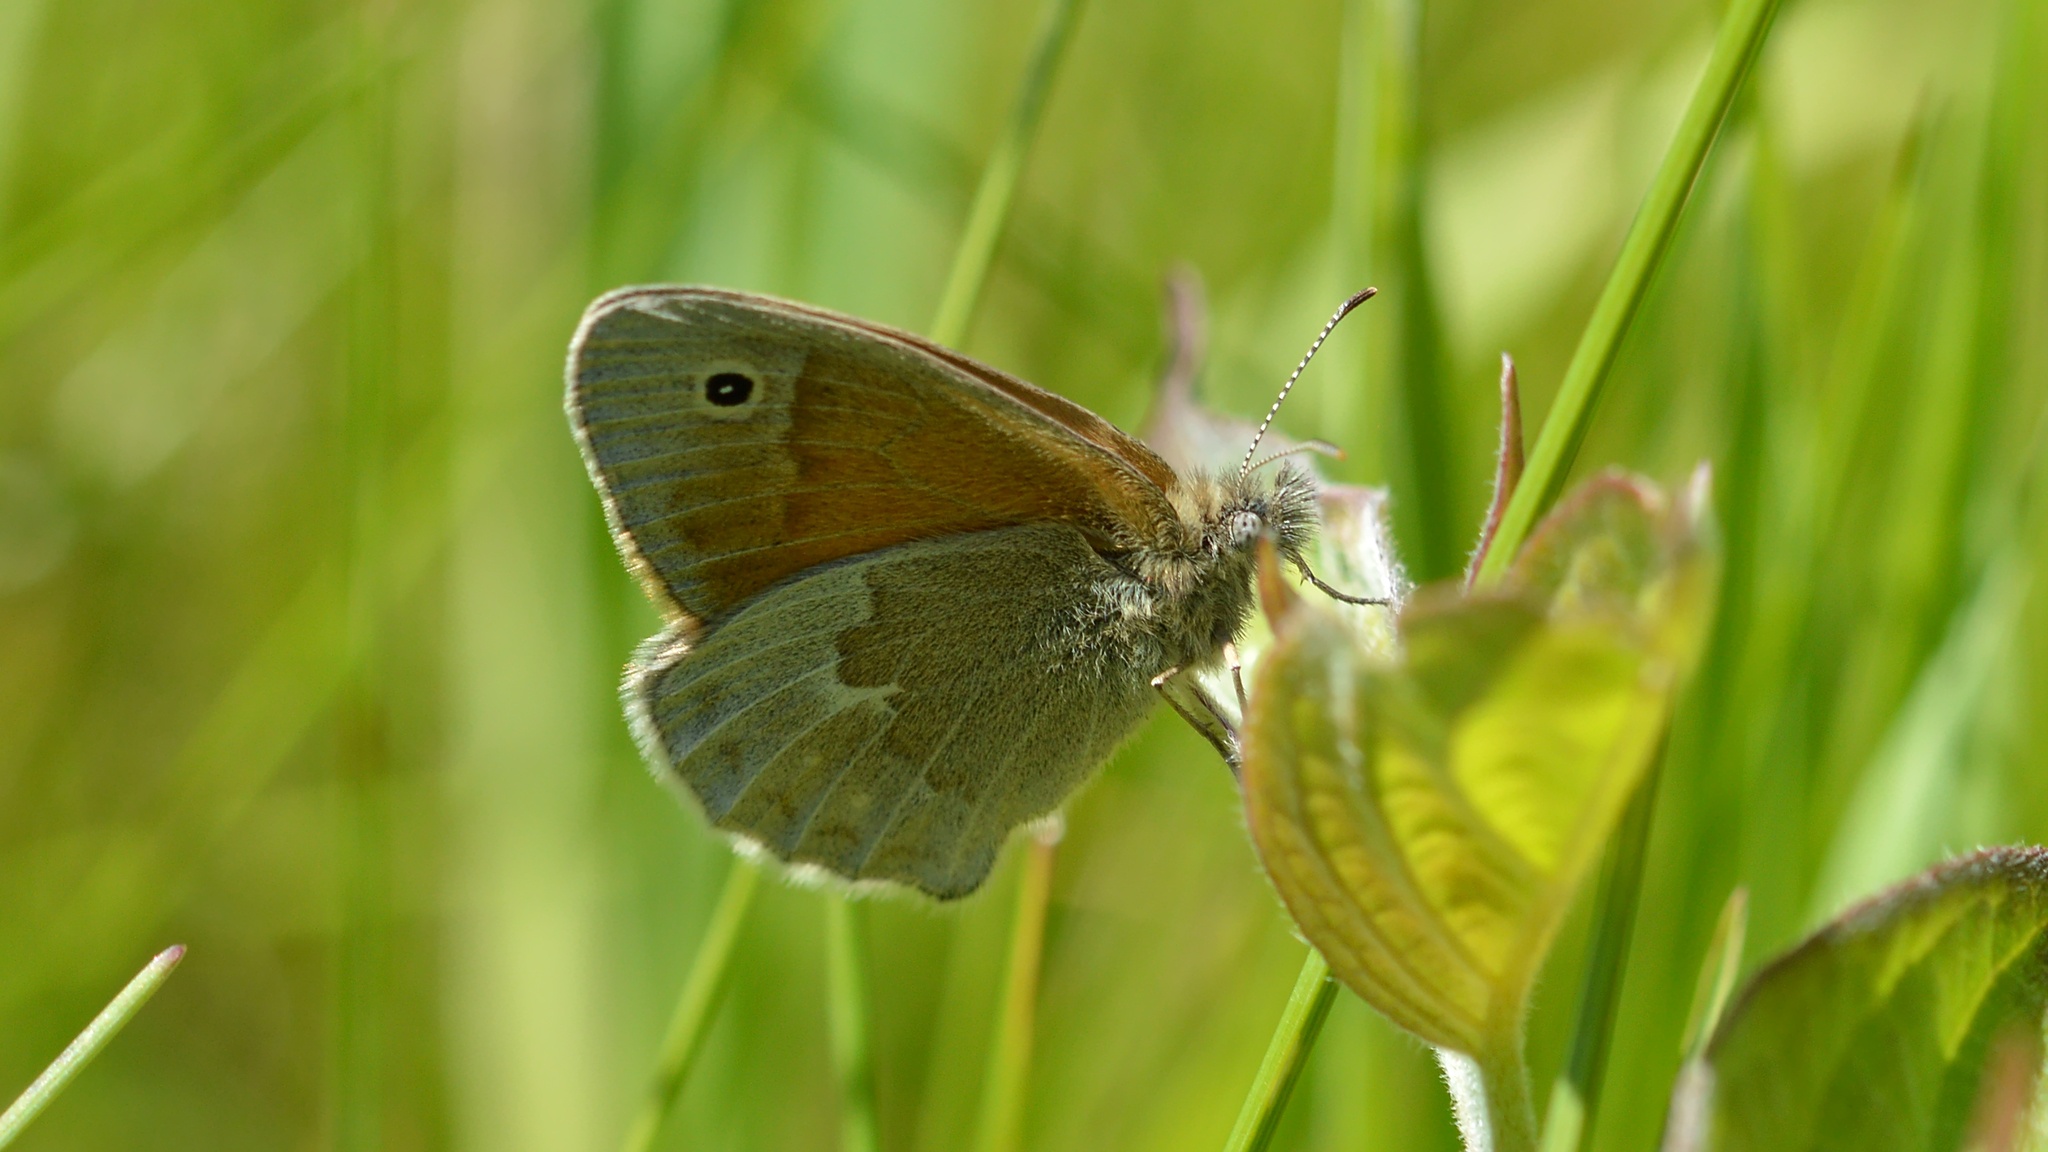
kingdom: Animalia
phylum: Arthropoda
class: Insecta
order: Lepidoptera
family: Nymphalidae
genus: Coenonympha
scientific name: Coenonympha california
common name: Common ringlet
